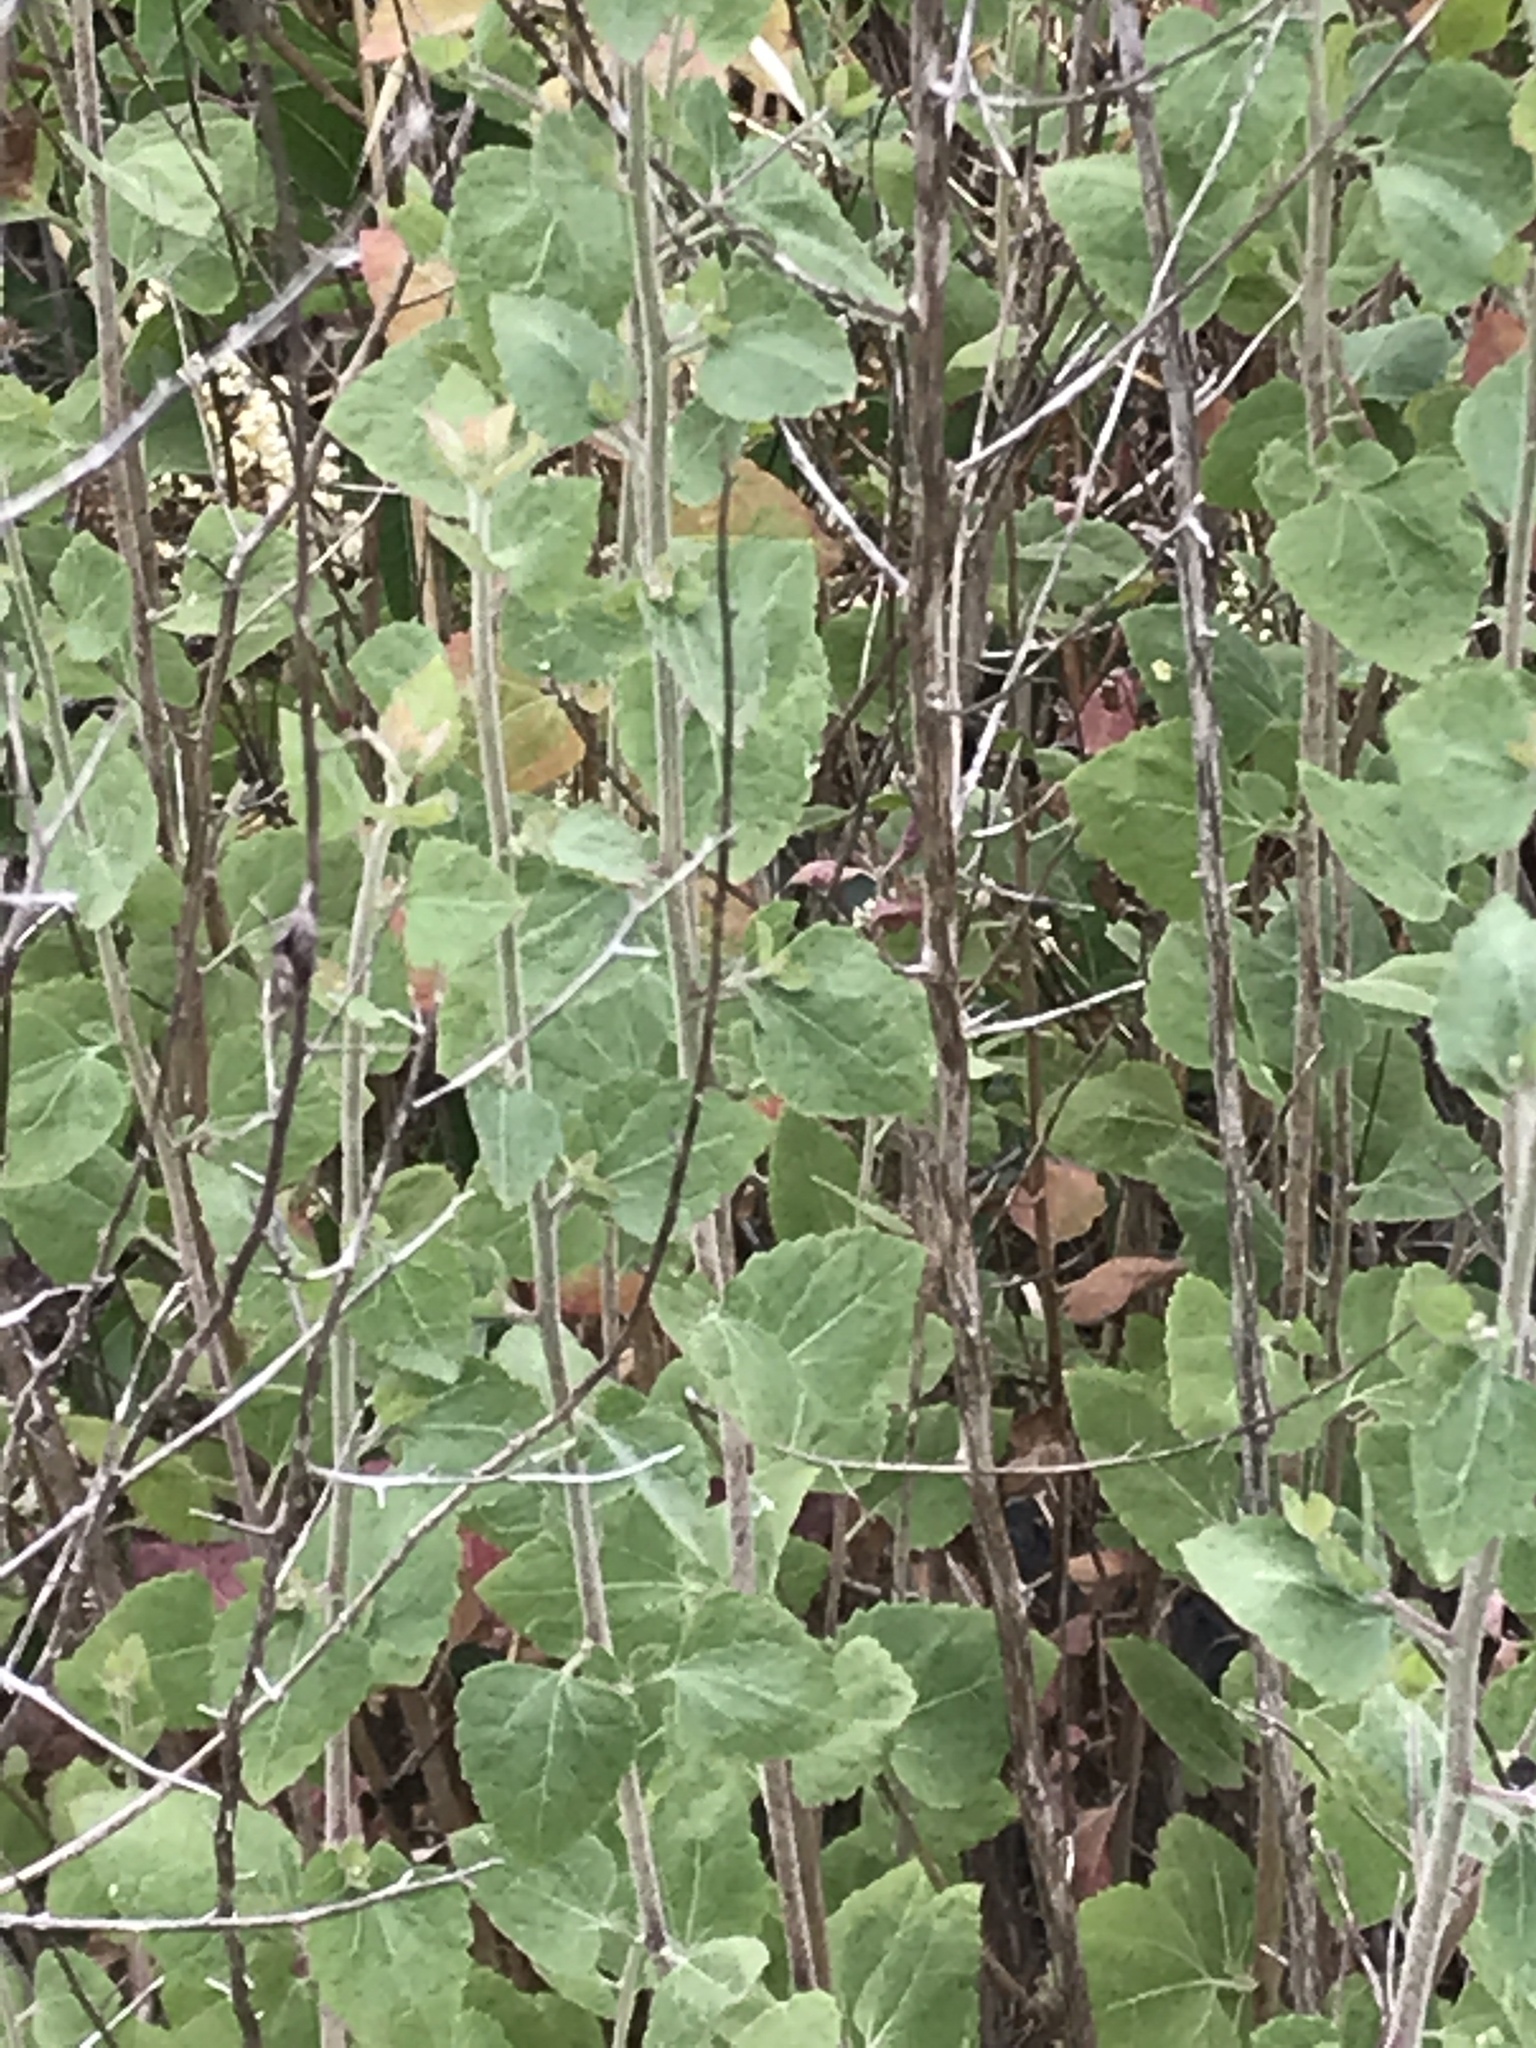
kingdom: Plantae
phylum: Tracheophyta
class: Magnoliopsida
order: Asterales
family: Asteraceae
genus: Brickellia
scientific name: Brickellia californica
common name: California brickellbush
